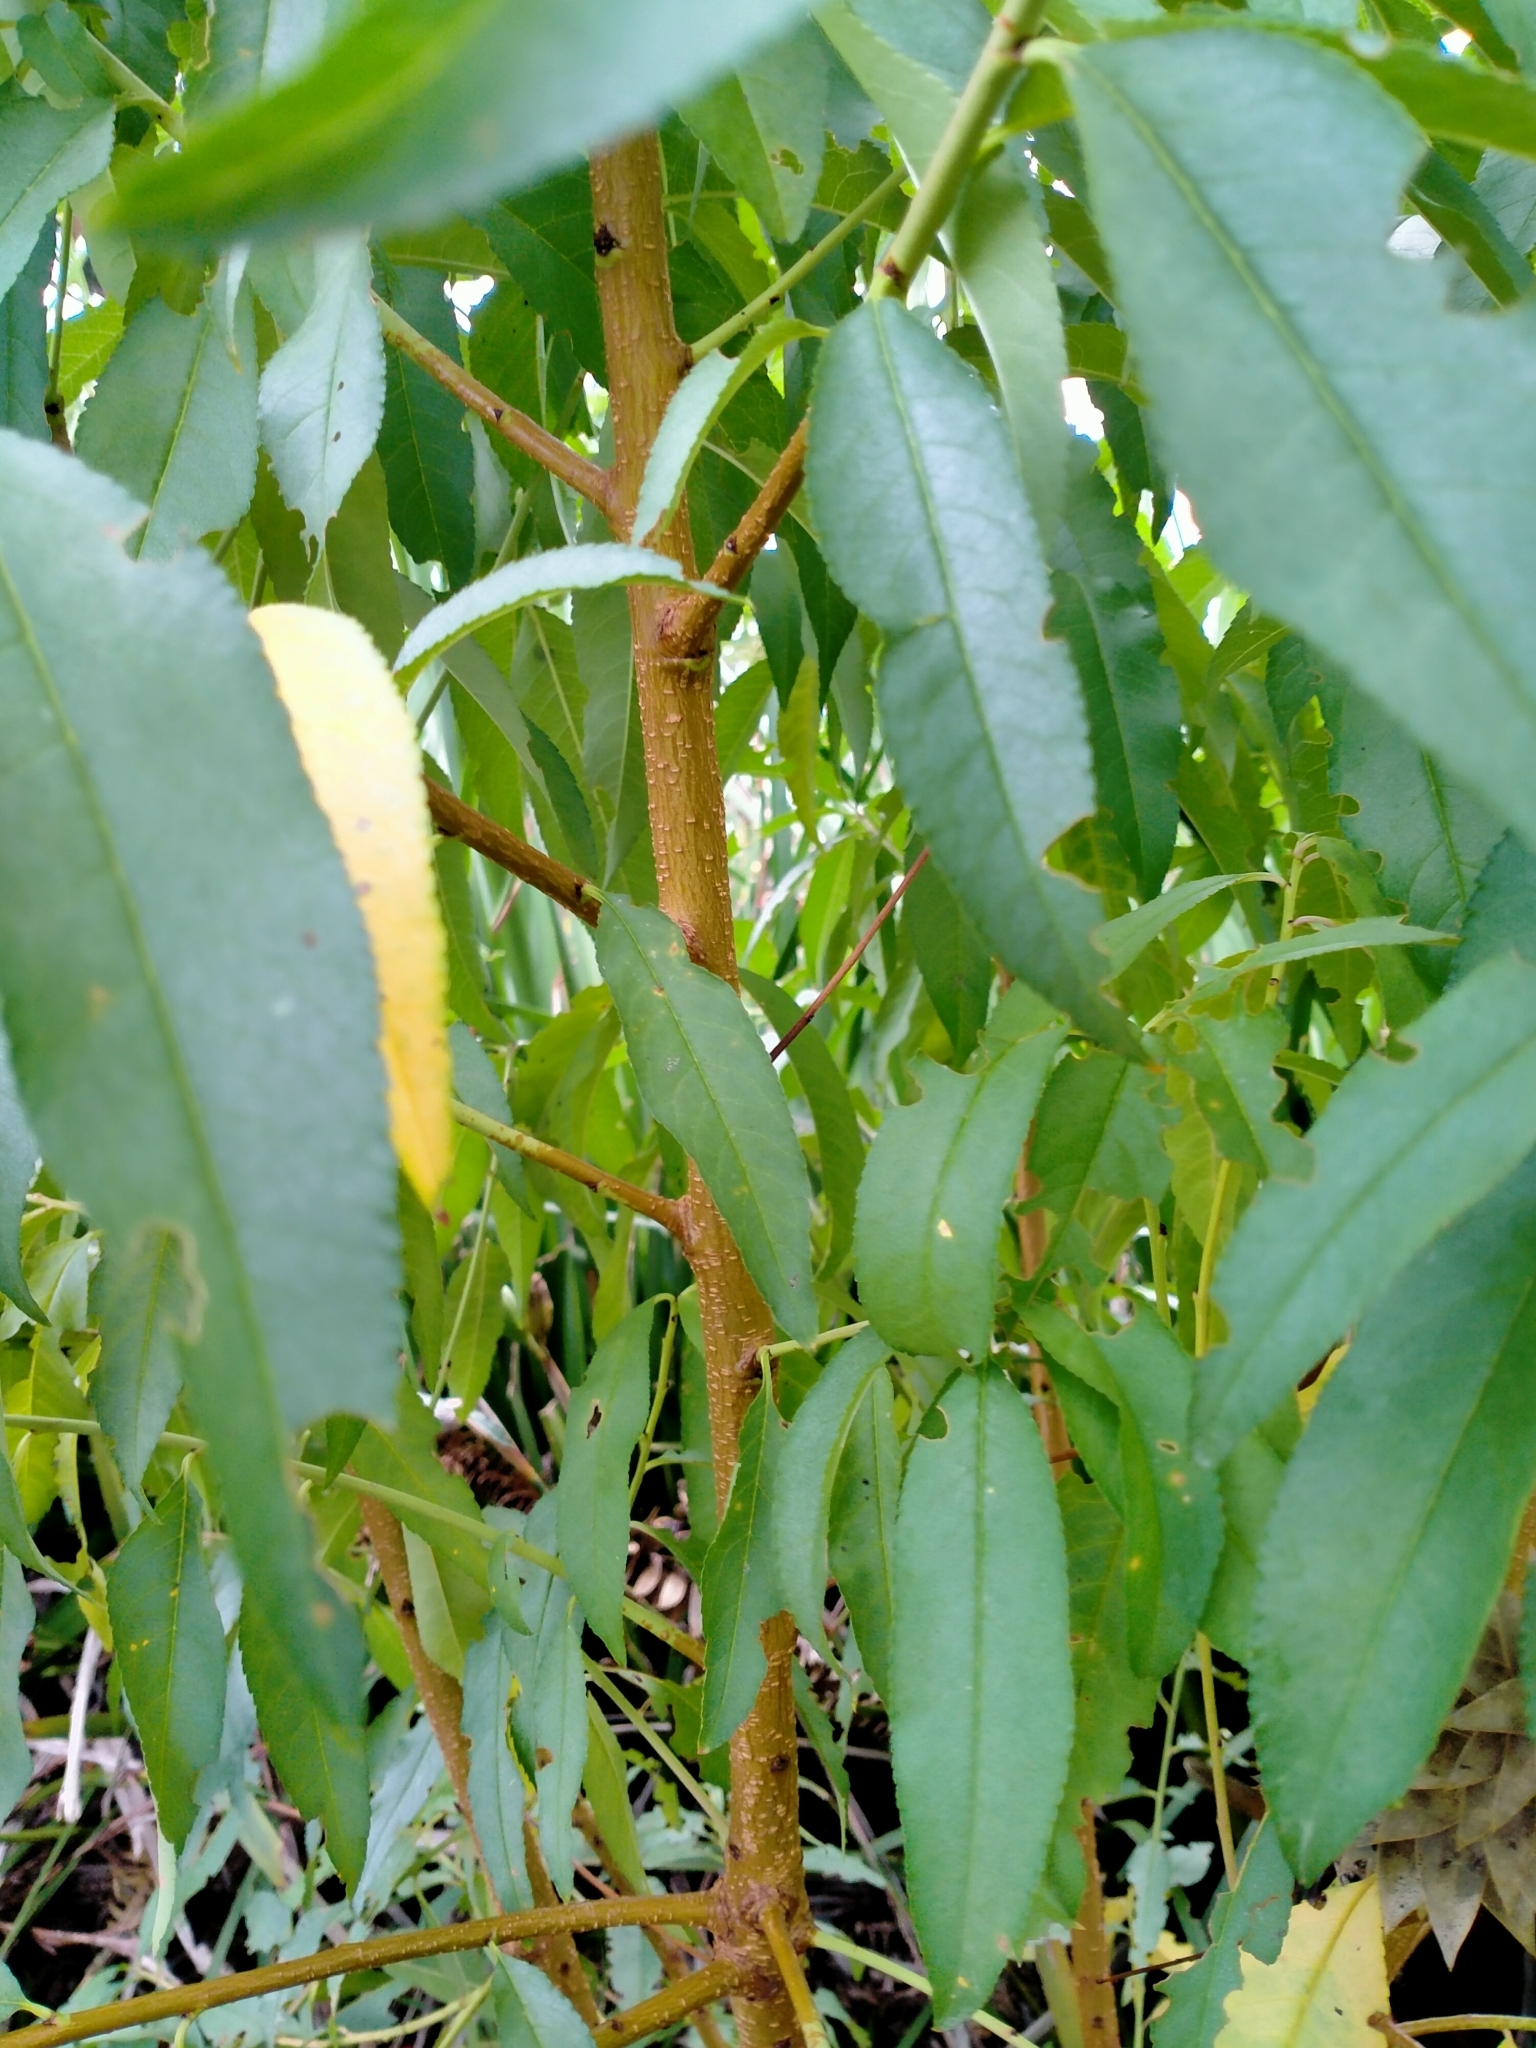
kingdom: Plantae
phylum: Tracheophyta
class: Magnoliopsida
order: Rosales
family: Rosaceae
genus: Prunus
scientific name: Prunus persica
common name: Peach
